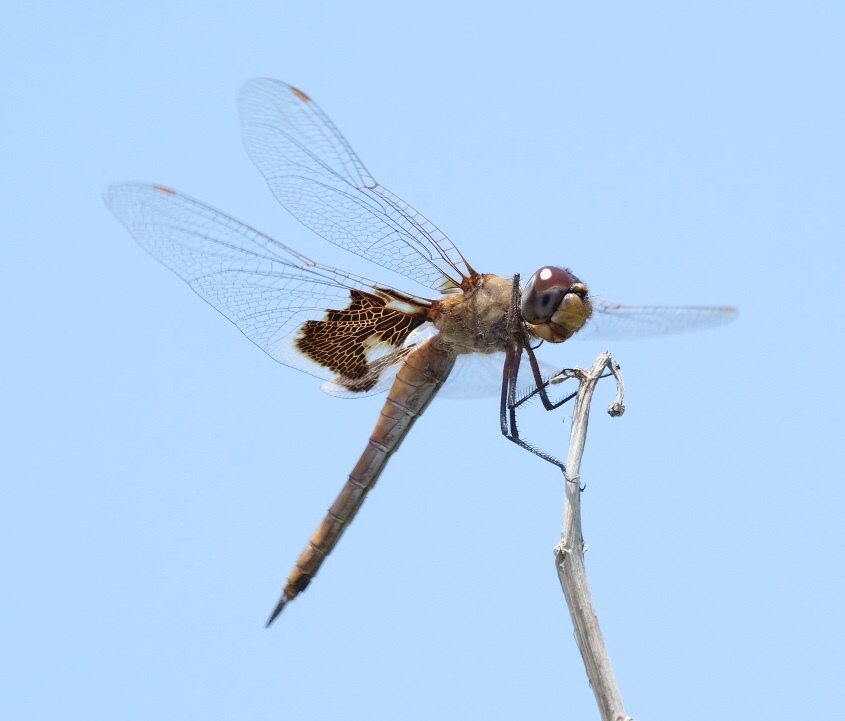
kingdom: Animalia
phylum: Arthropoda
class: Insecta
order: Odonata
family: Libellulidae
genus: Tramea
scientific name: Tramea onusta
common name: Red saddlebags
